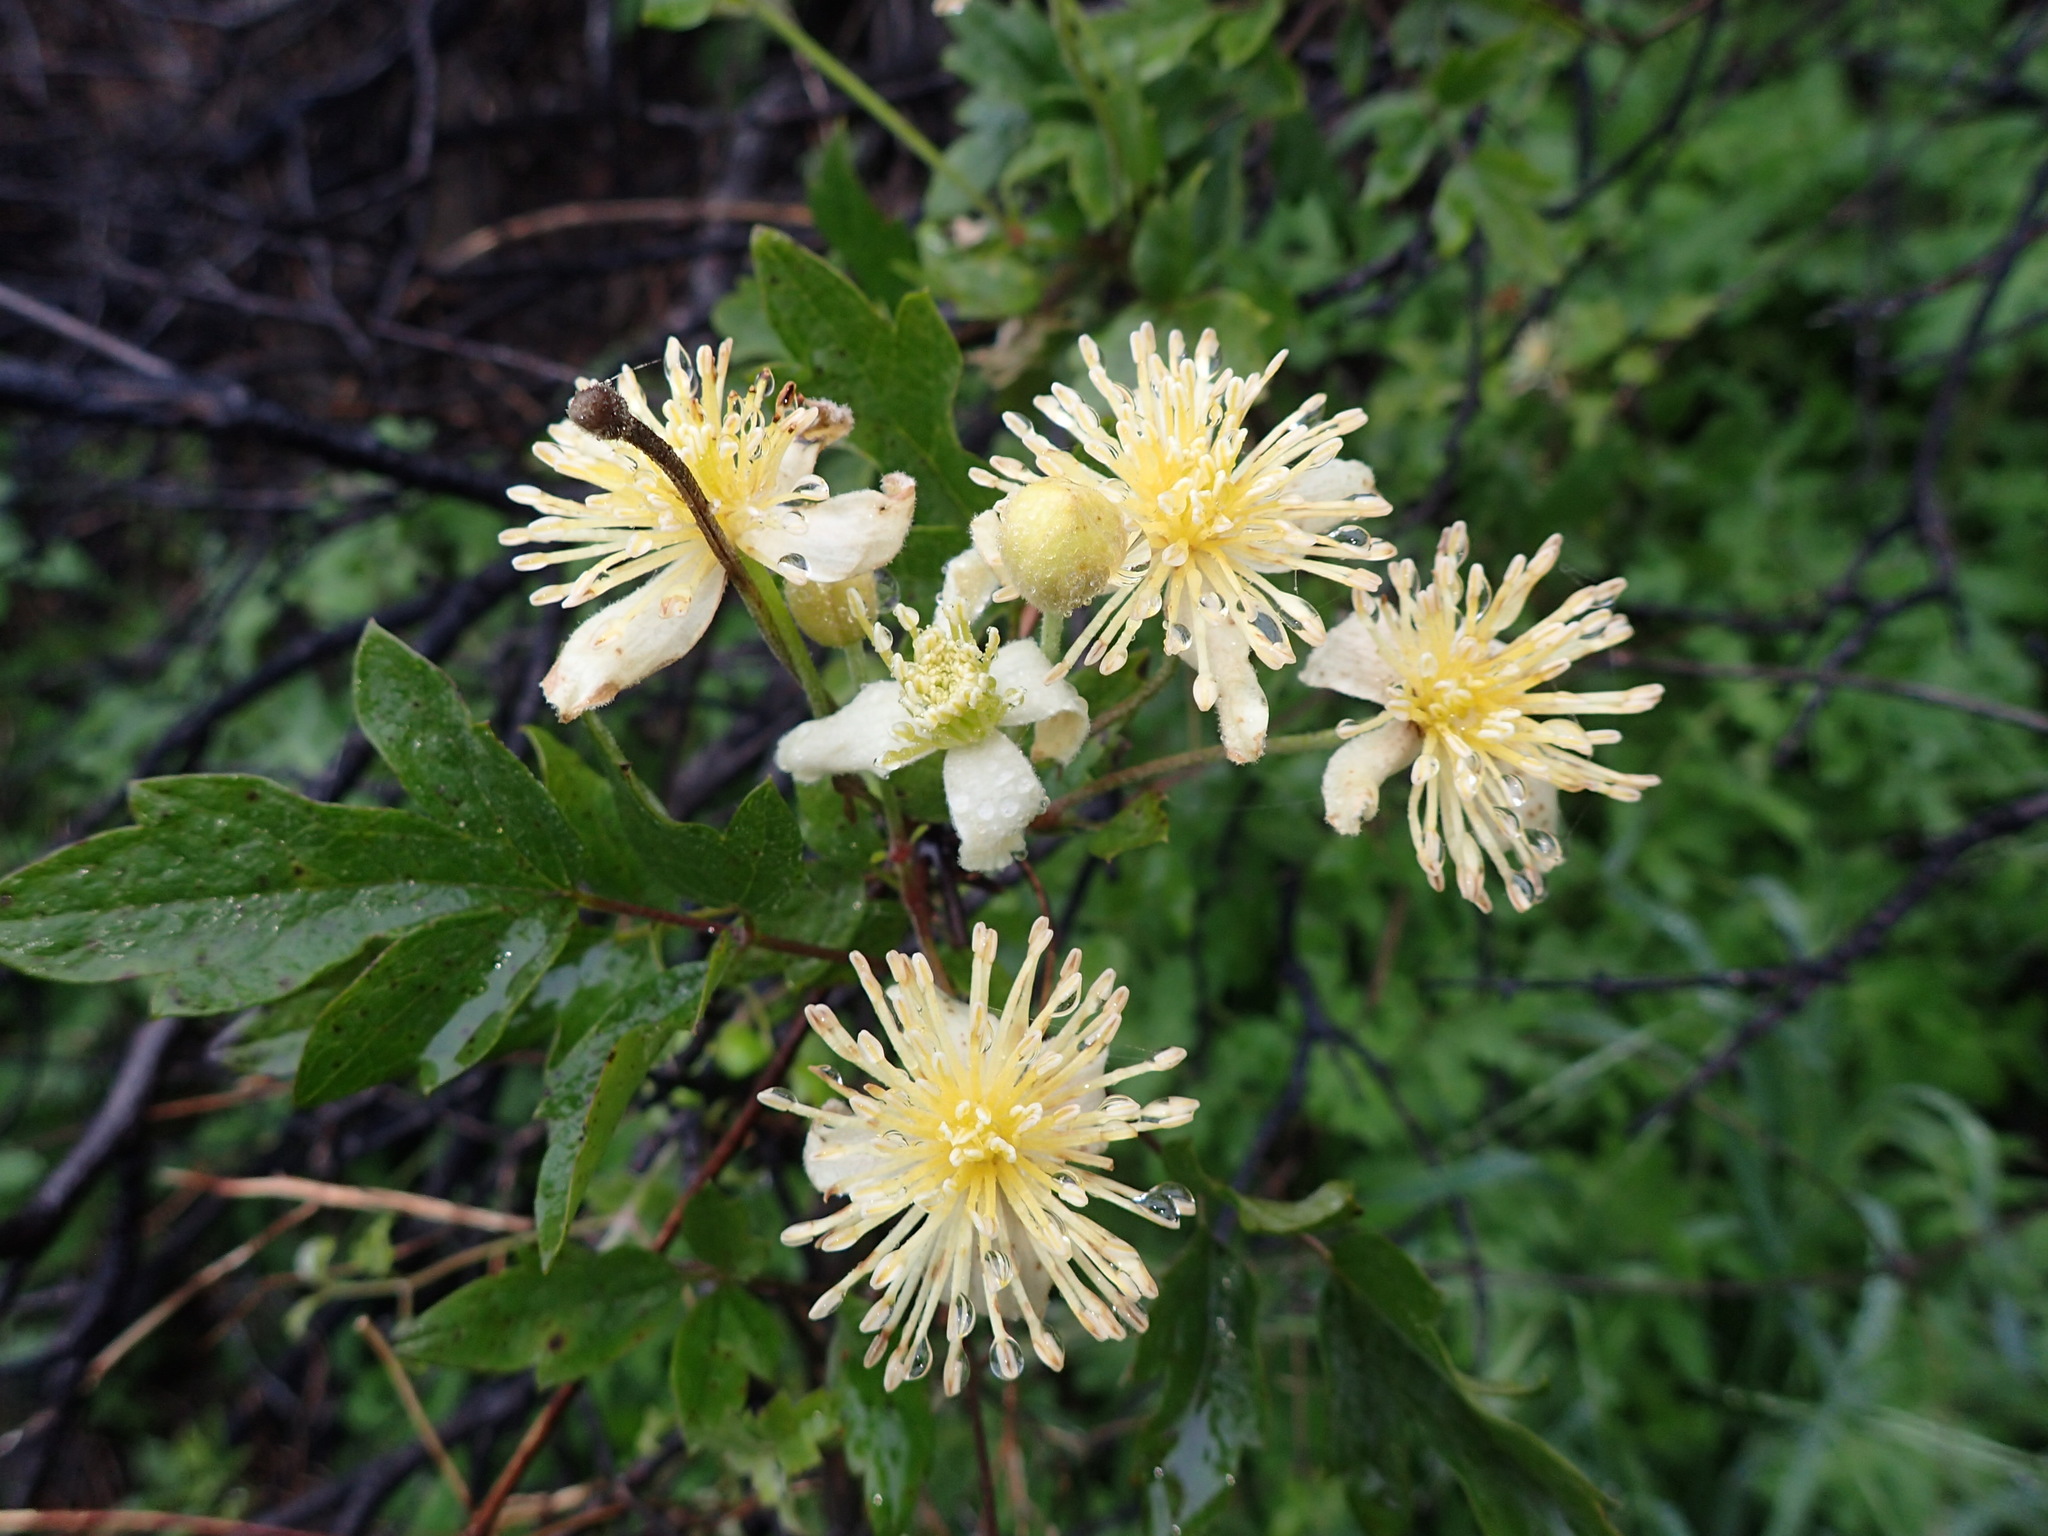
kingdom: Plantae
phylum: Tracheophyta
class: Magnoliopsida
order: Ranunculales
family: Ranunculaceae
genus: Clematis
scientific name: Clematis lasiantha
